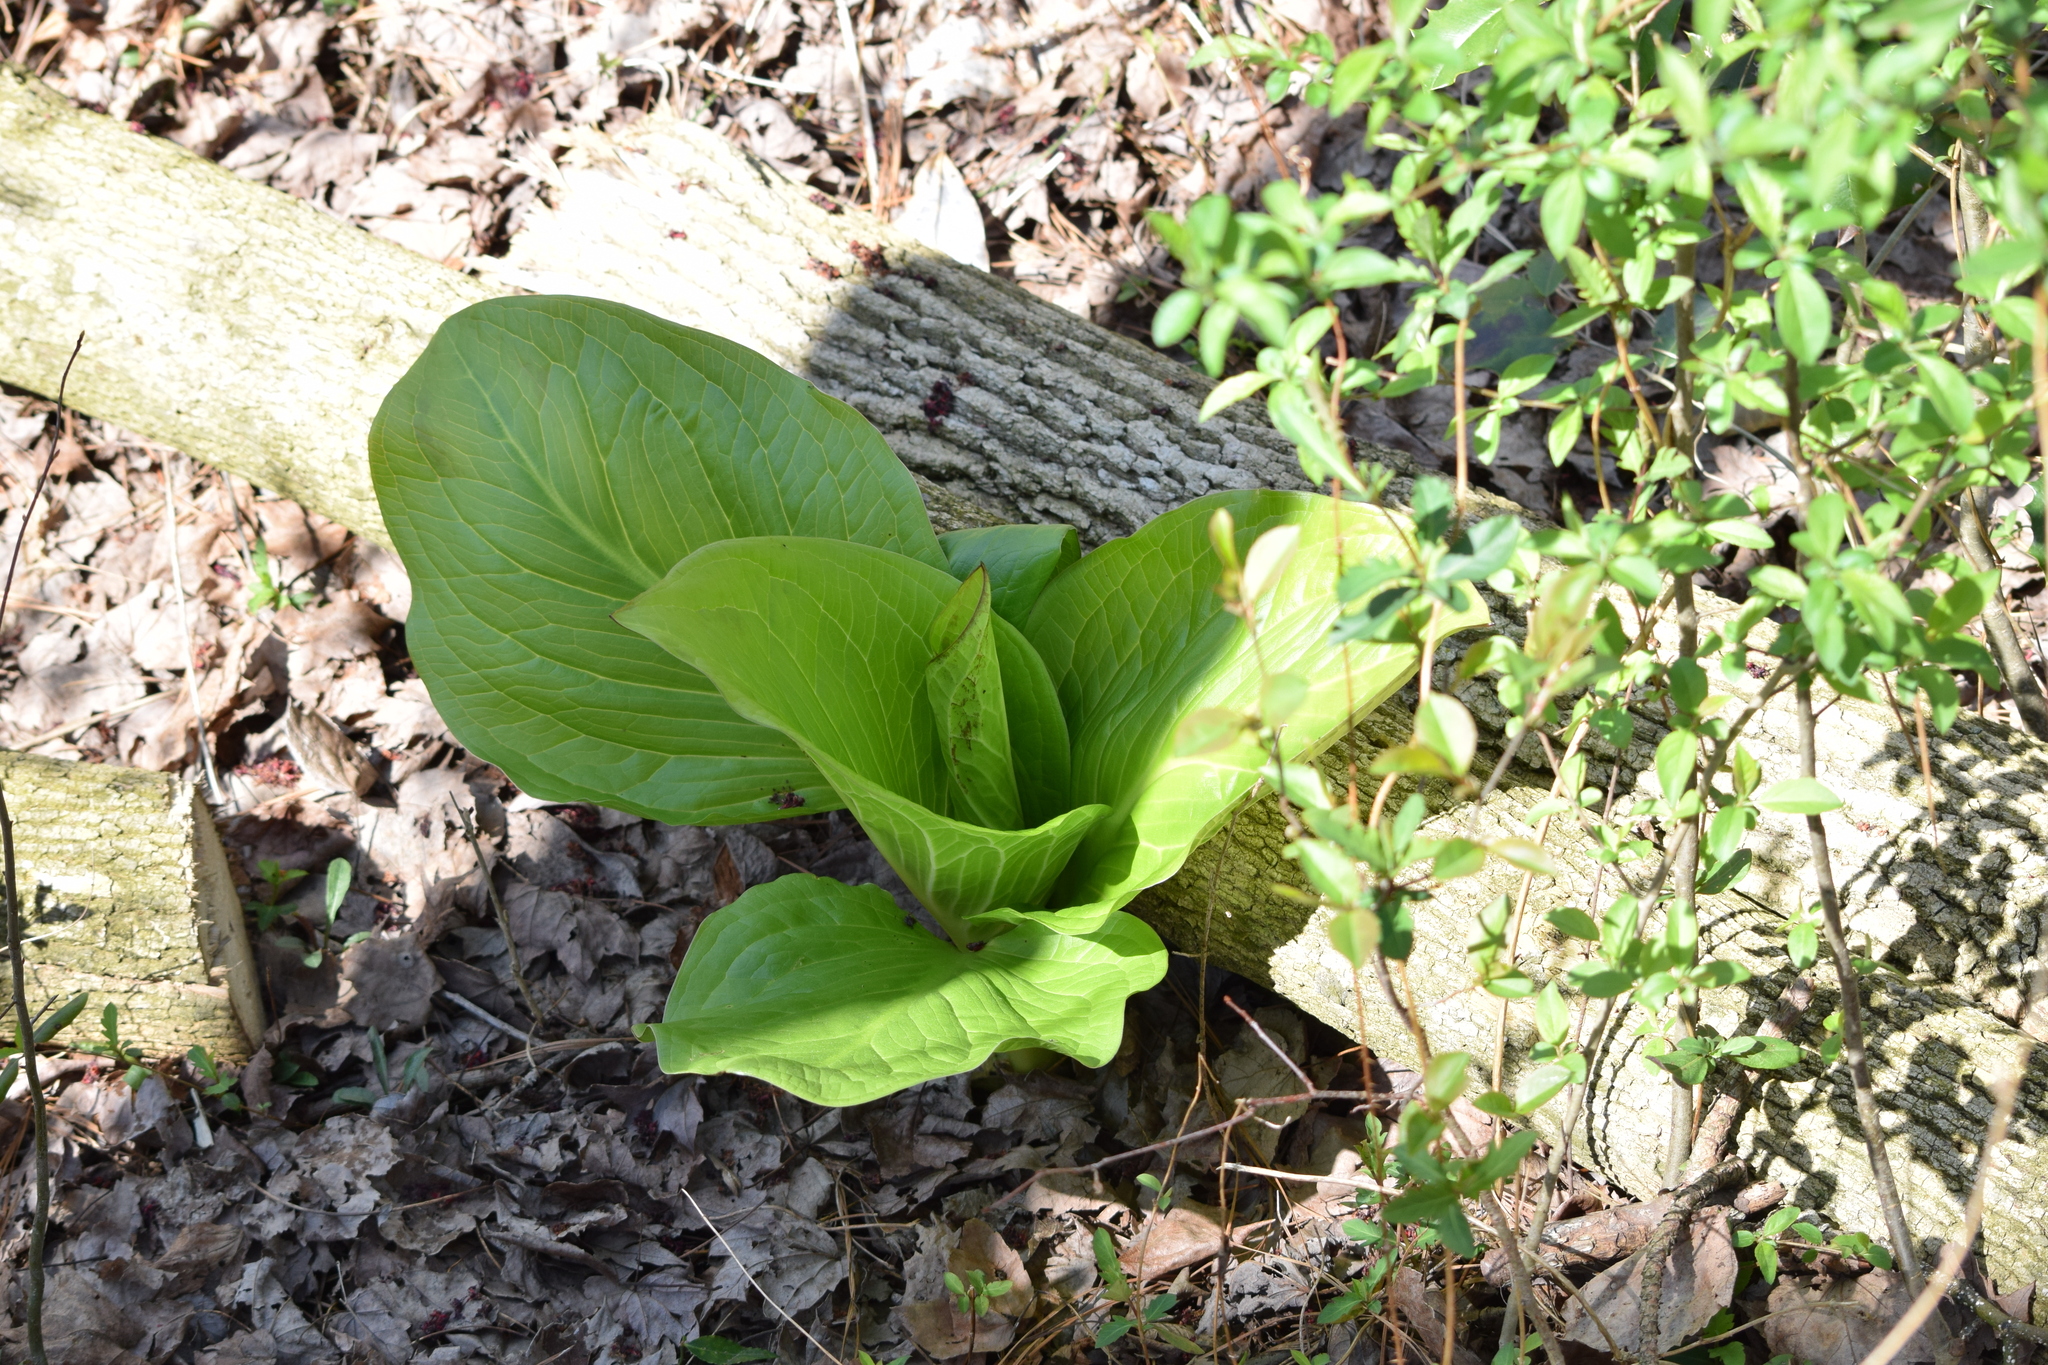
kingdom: Plantae
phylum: Tracheophyta
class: Liliopsida
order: Alismatales
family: Araceae
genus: Symplocarpus
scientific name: Symplocarpus foetidus
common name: Eastern skunk cabbage
